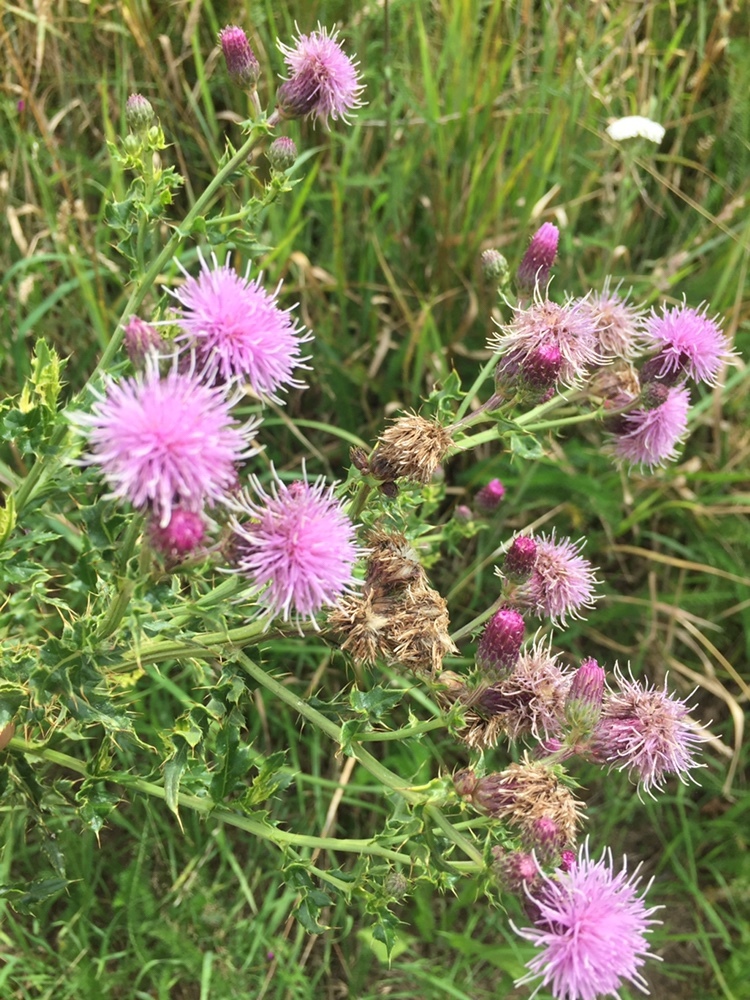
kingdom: Plantae
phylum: Tracheophyta
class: Magnoliopsida
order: Asterales
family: Asteraceae
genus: Cirsium
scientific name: Cirsium arvense
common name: Creeping thistle
